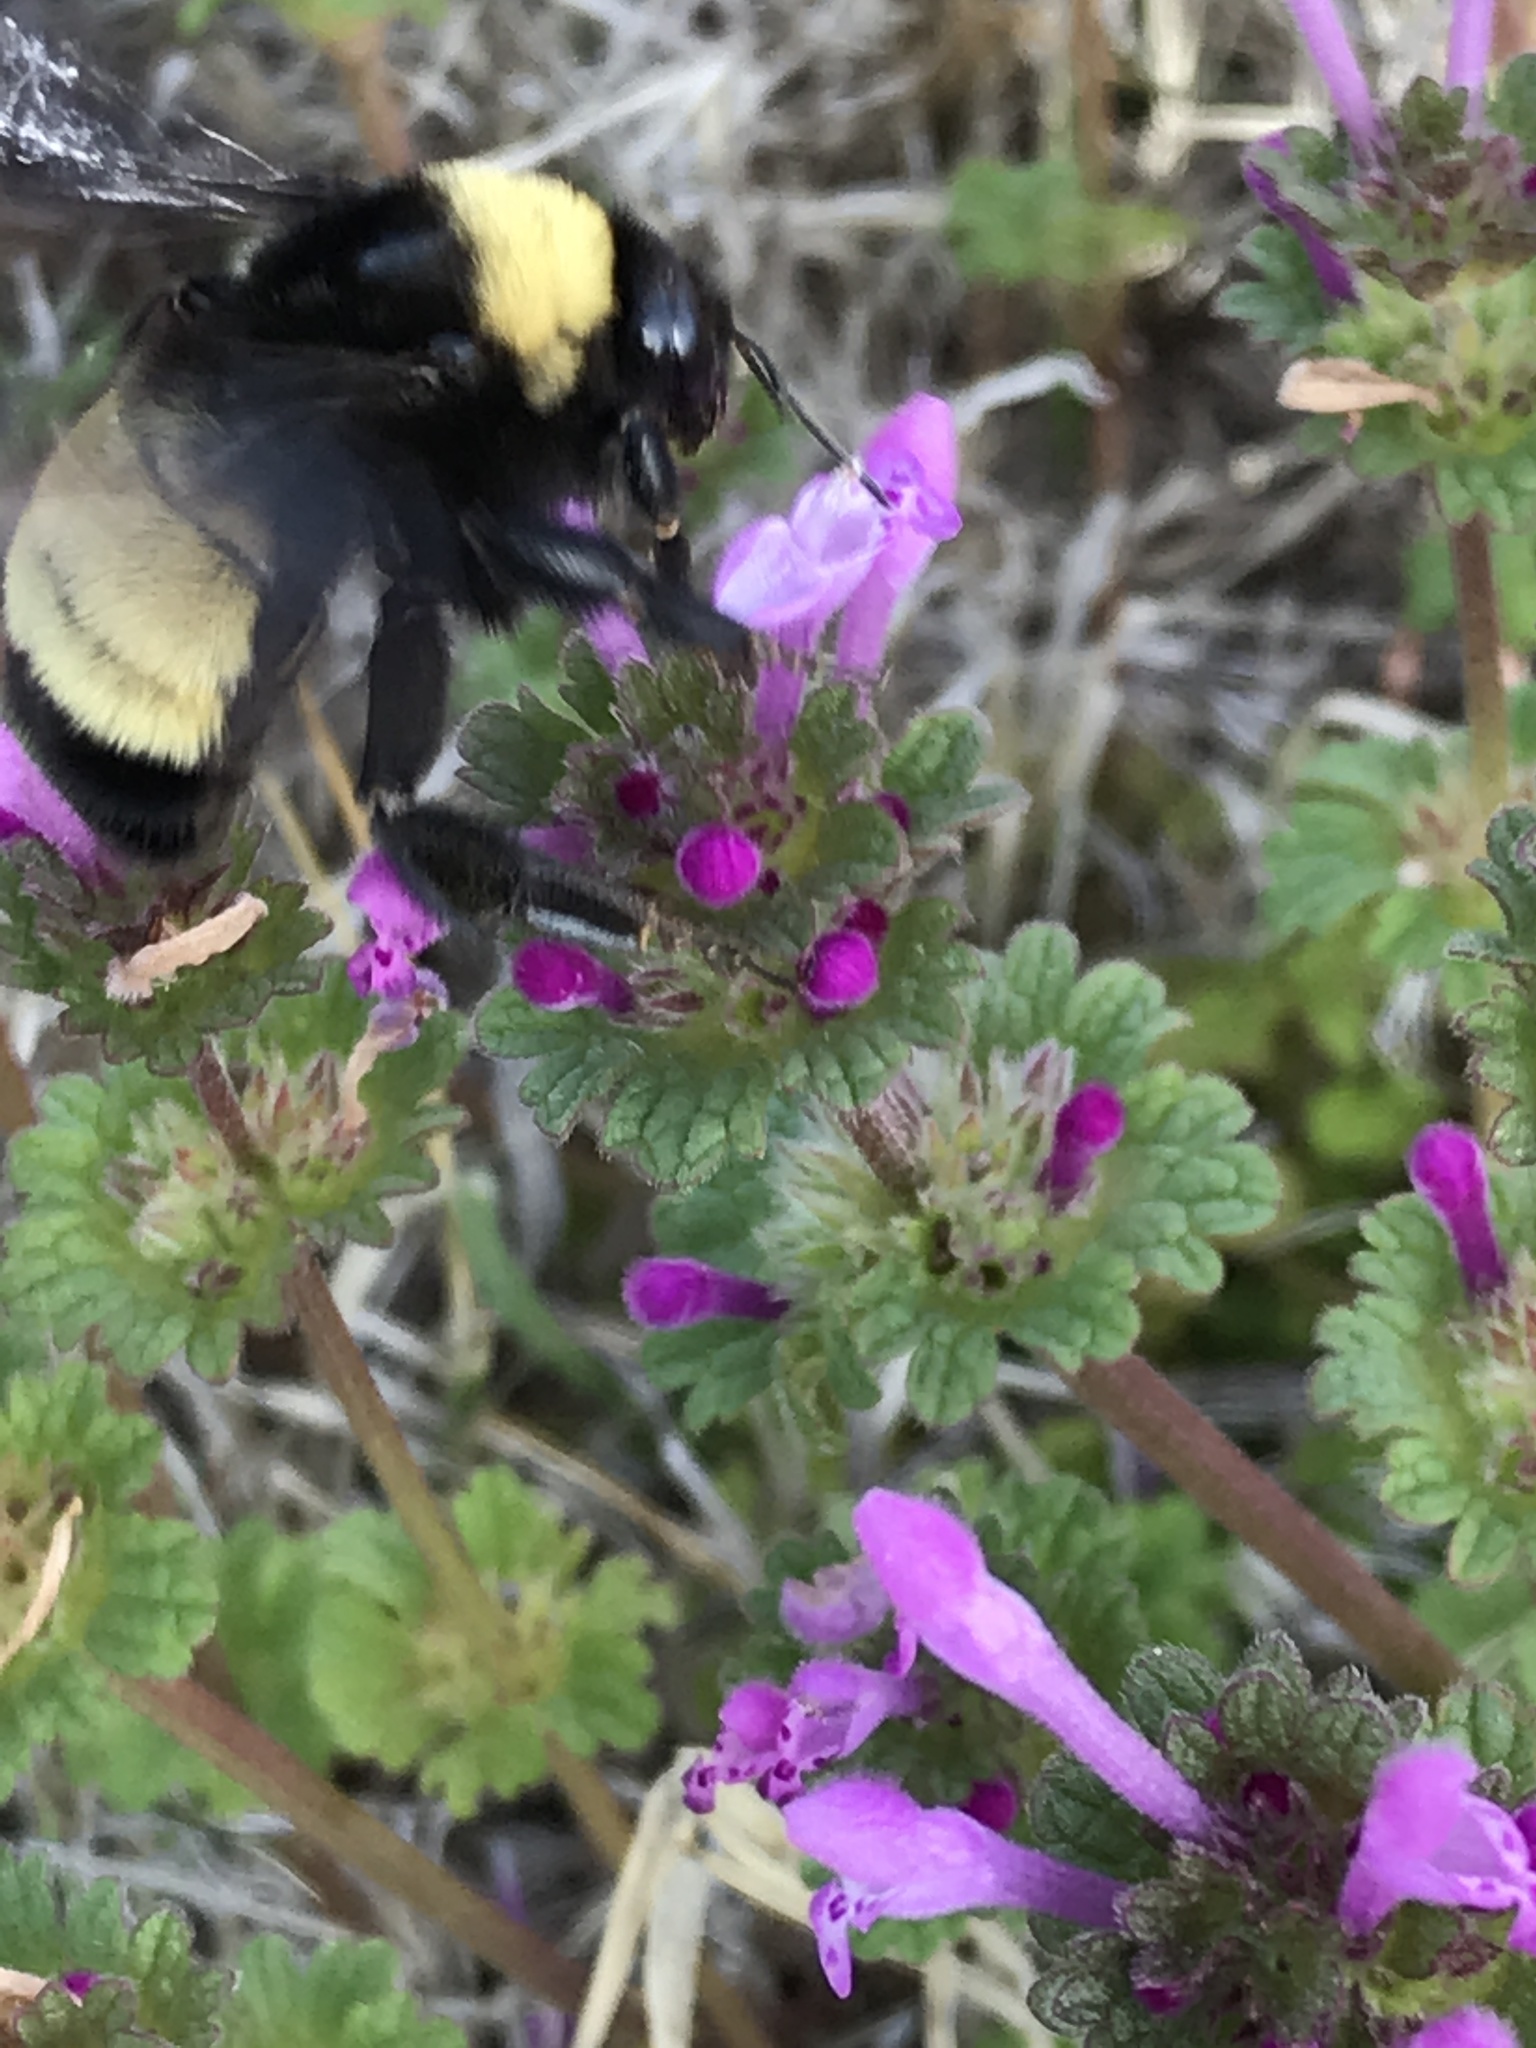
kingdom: Animalia
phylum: Arthropoda
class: Insecta
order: Hymenoptera
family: Apidae
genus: Bombus
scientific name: Bombus pensylvanicus
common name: Bumble bee
